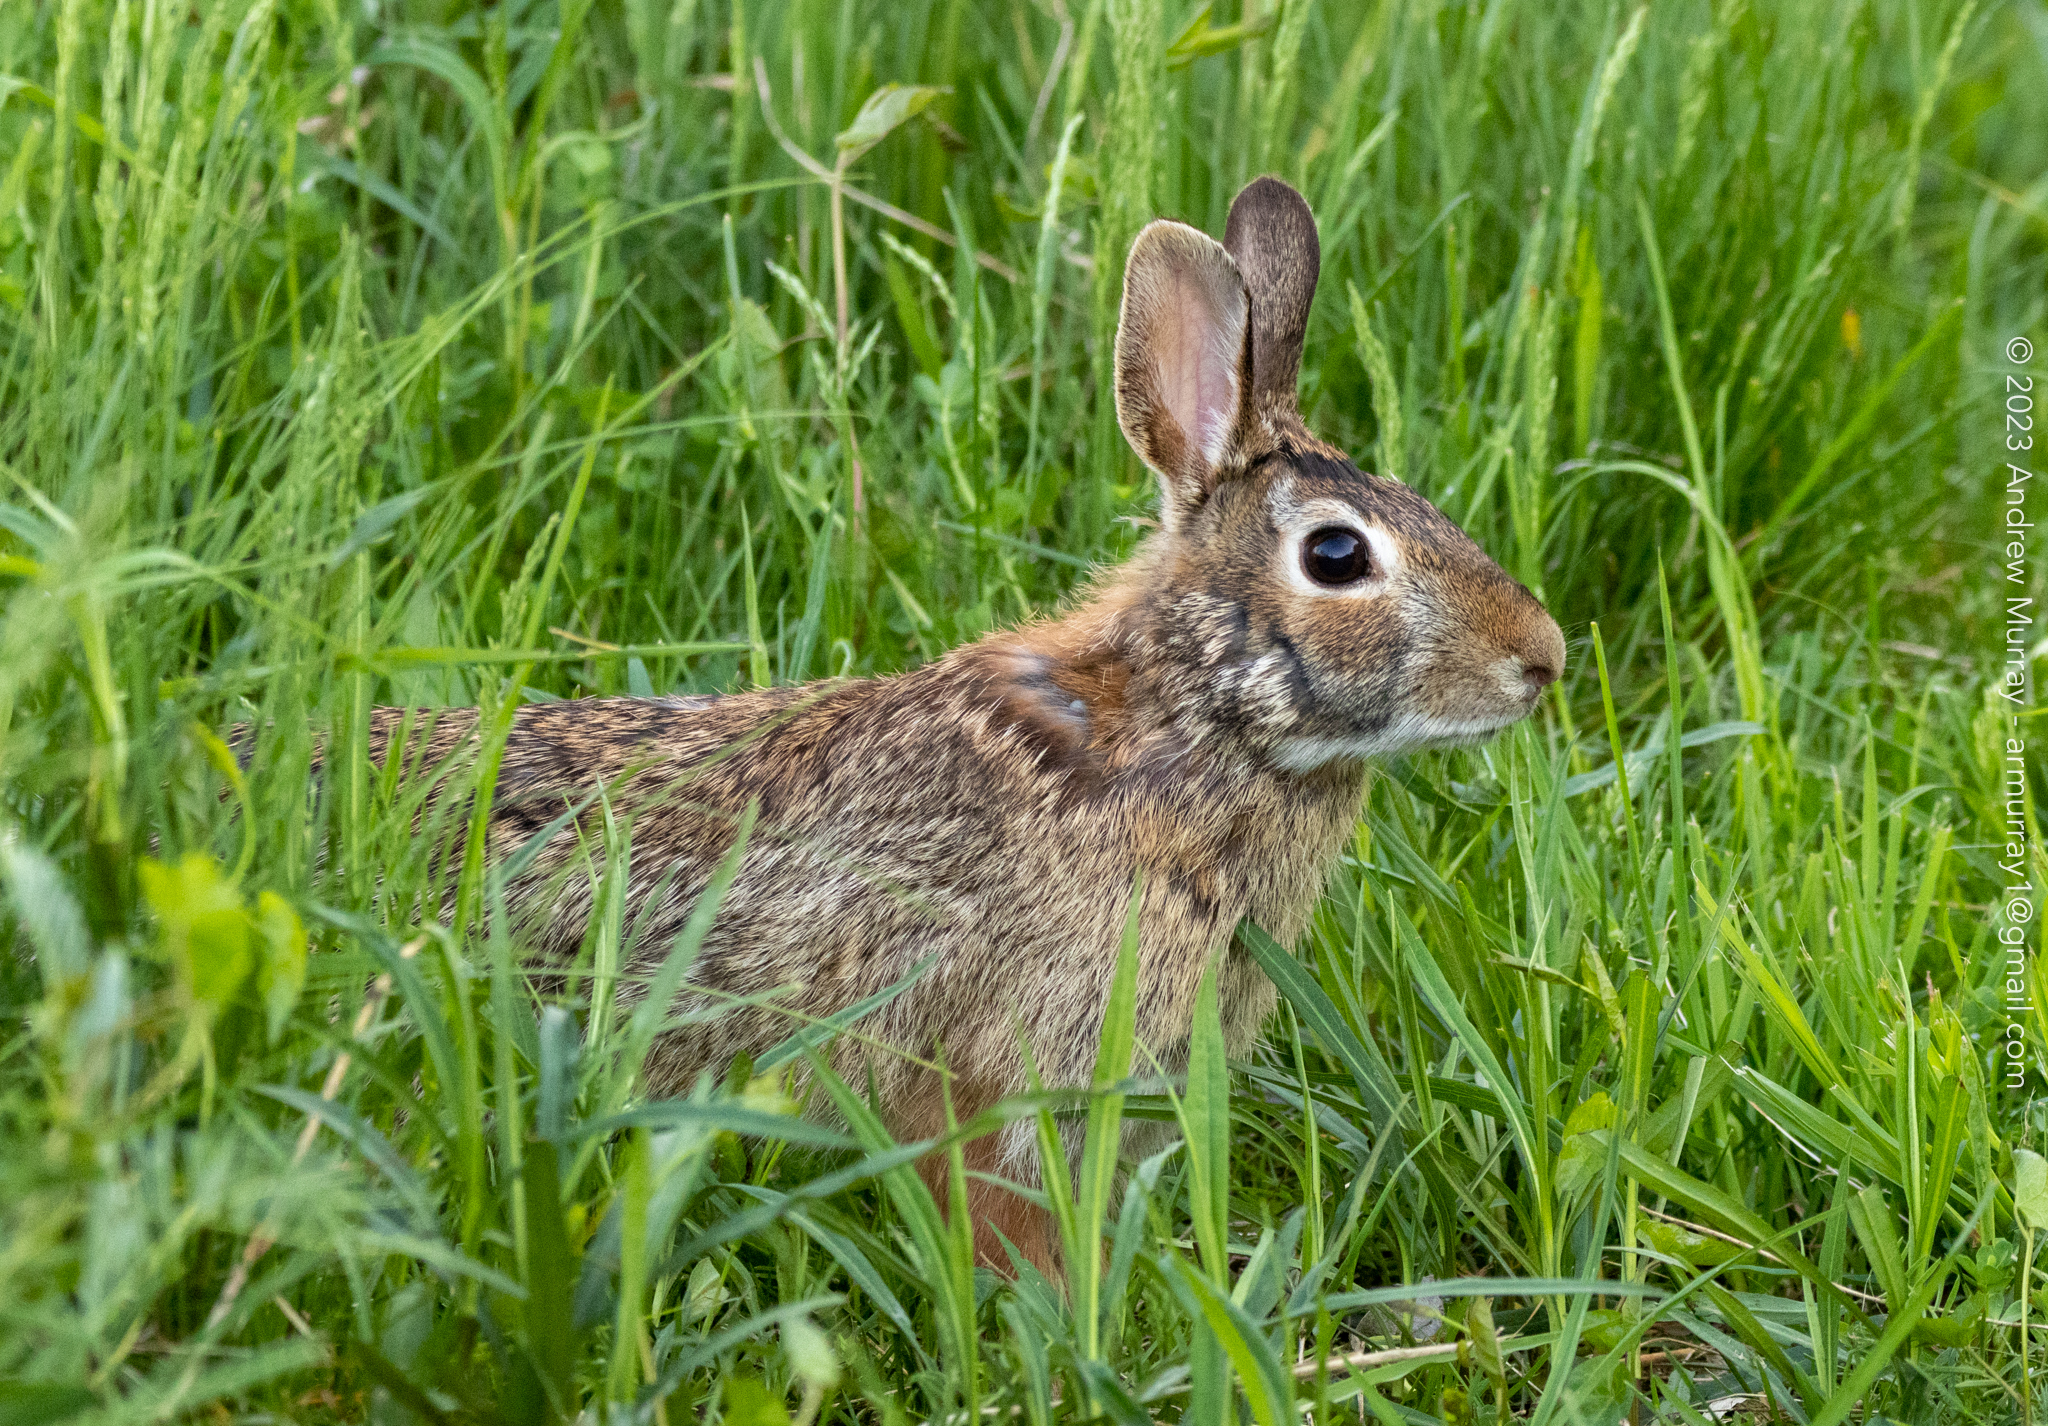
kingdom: Animalia
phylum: Chordata
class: Mammalia
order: Lagomorpha
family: Leporidae
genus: Sylvilagus
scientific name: Sylvilagus floridanus
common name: Eastern cottontail
